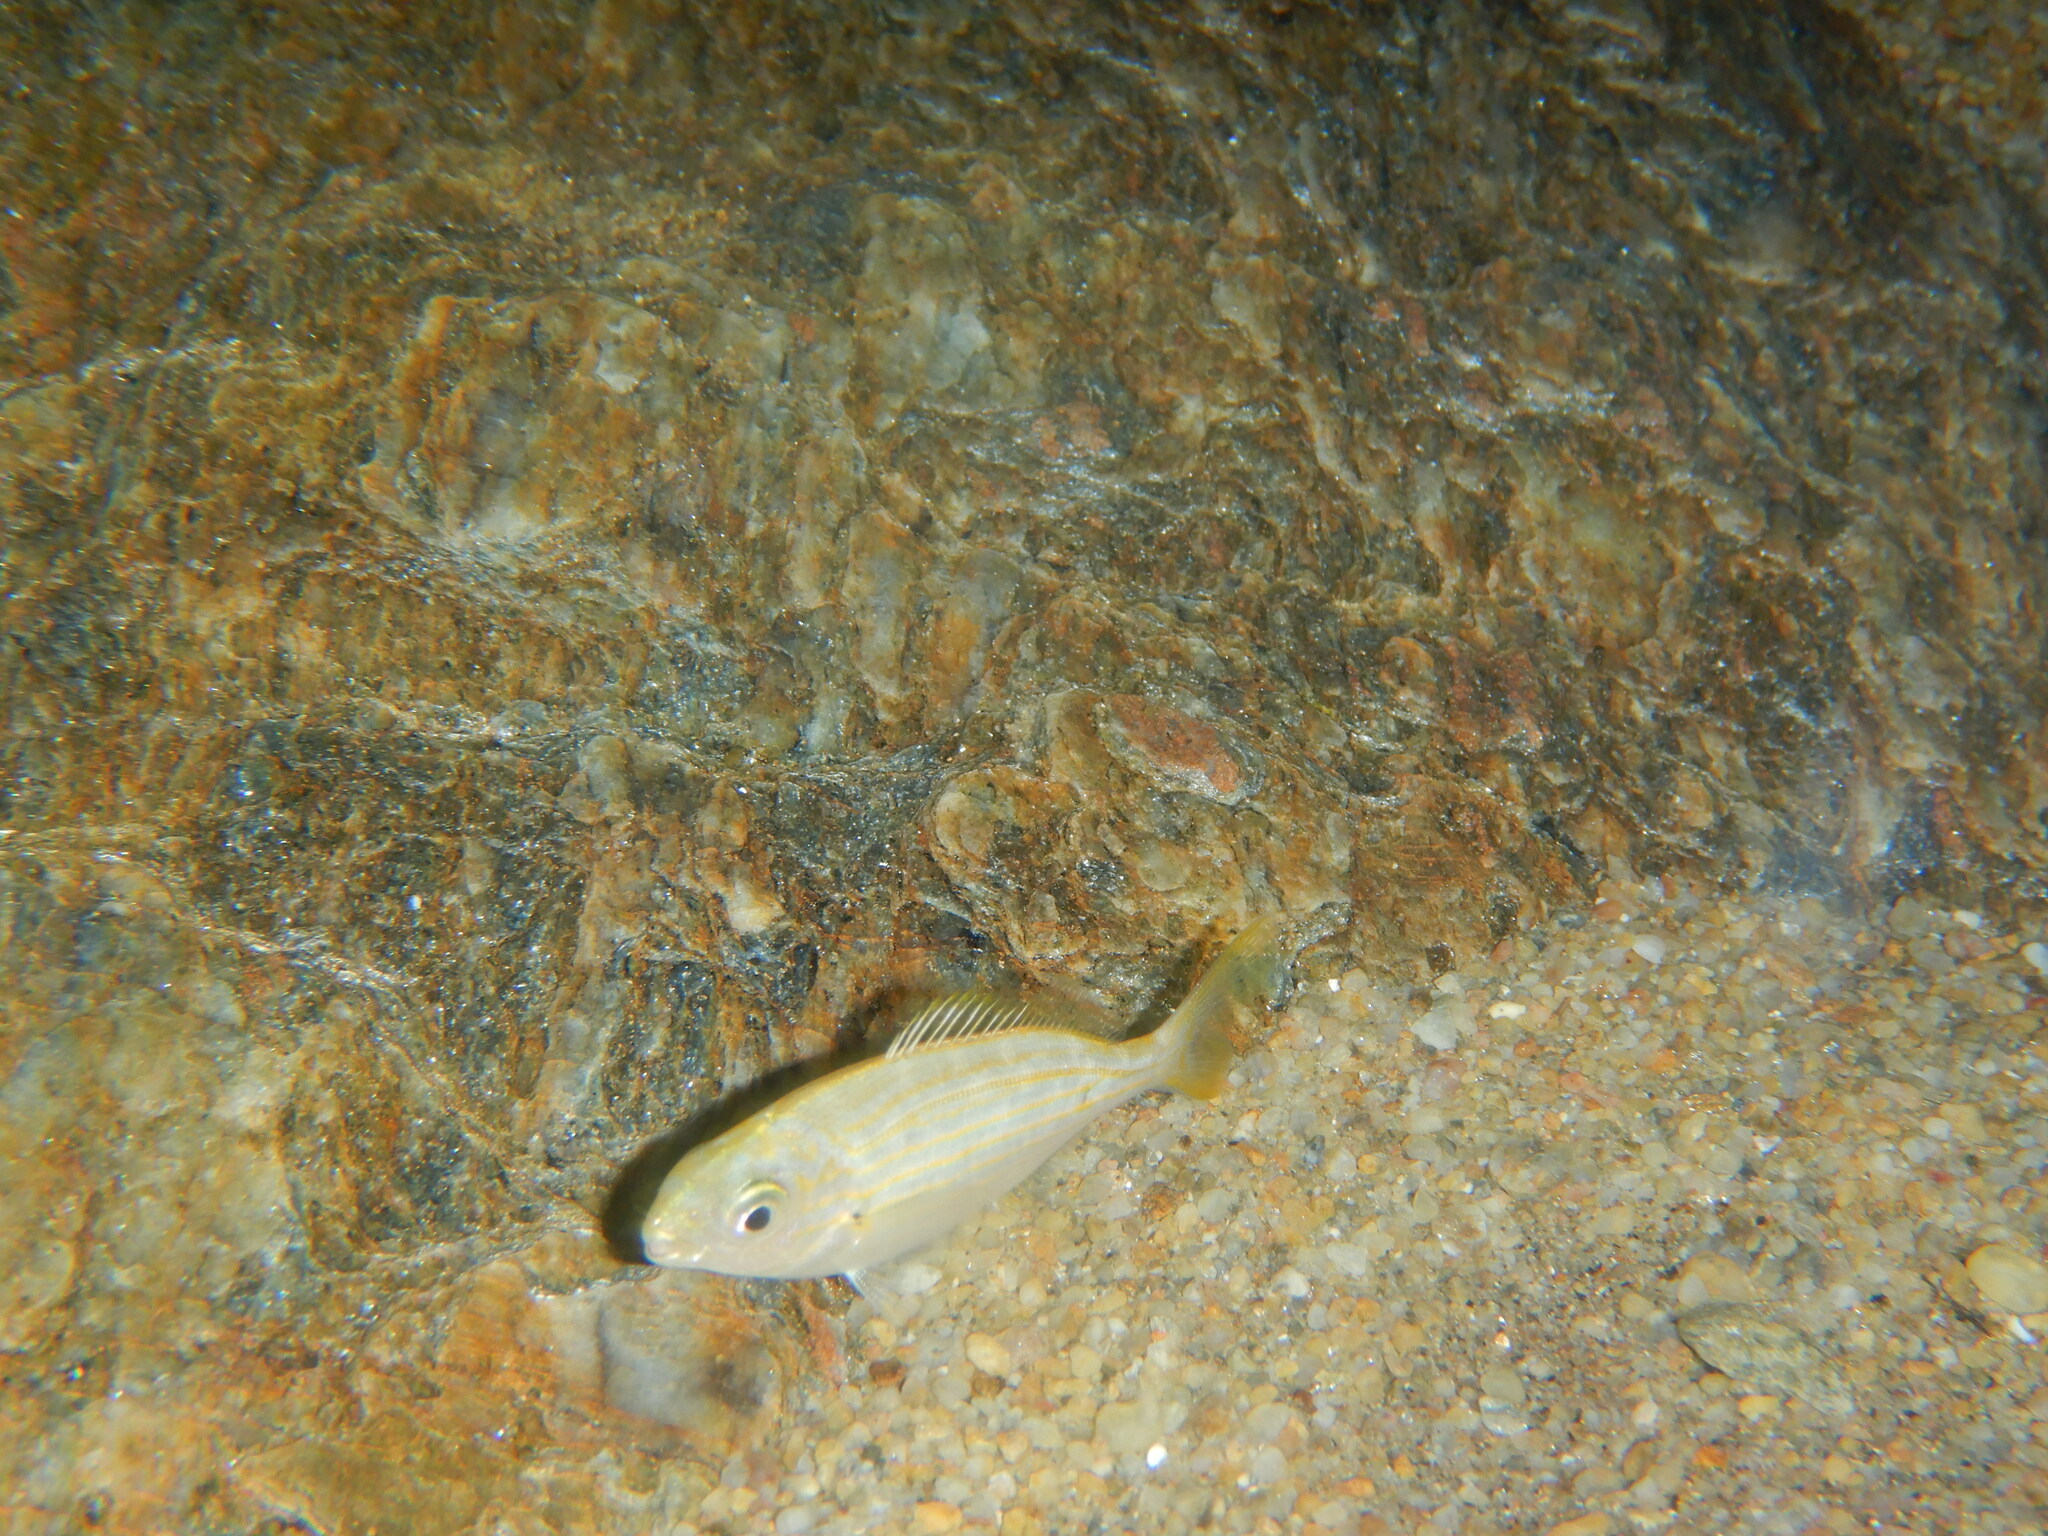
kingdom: Animalia
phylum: Chordata
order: Perciformes
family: Sparidae
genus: Sarpa
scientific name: Sarpa salpa
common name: Salema
